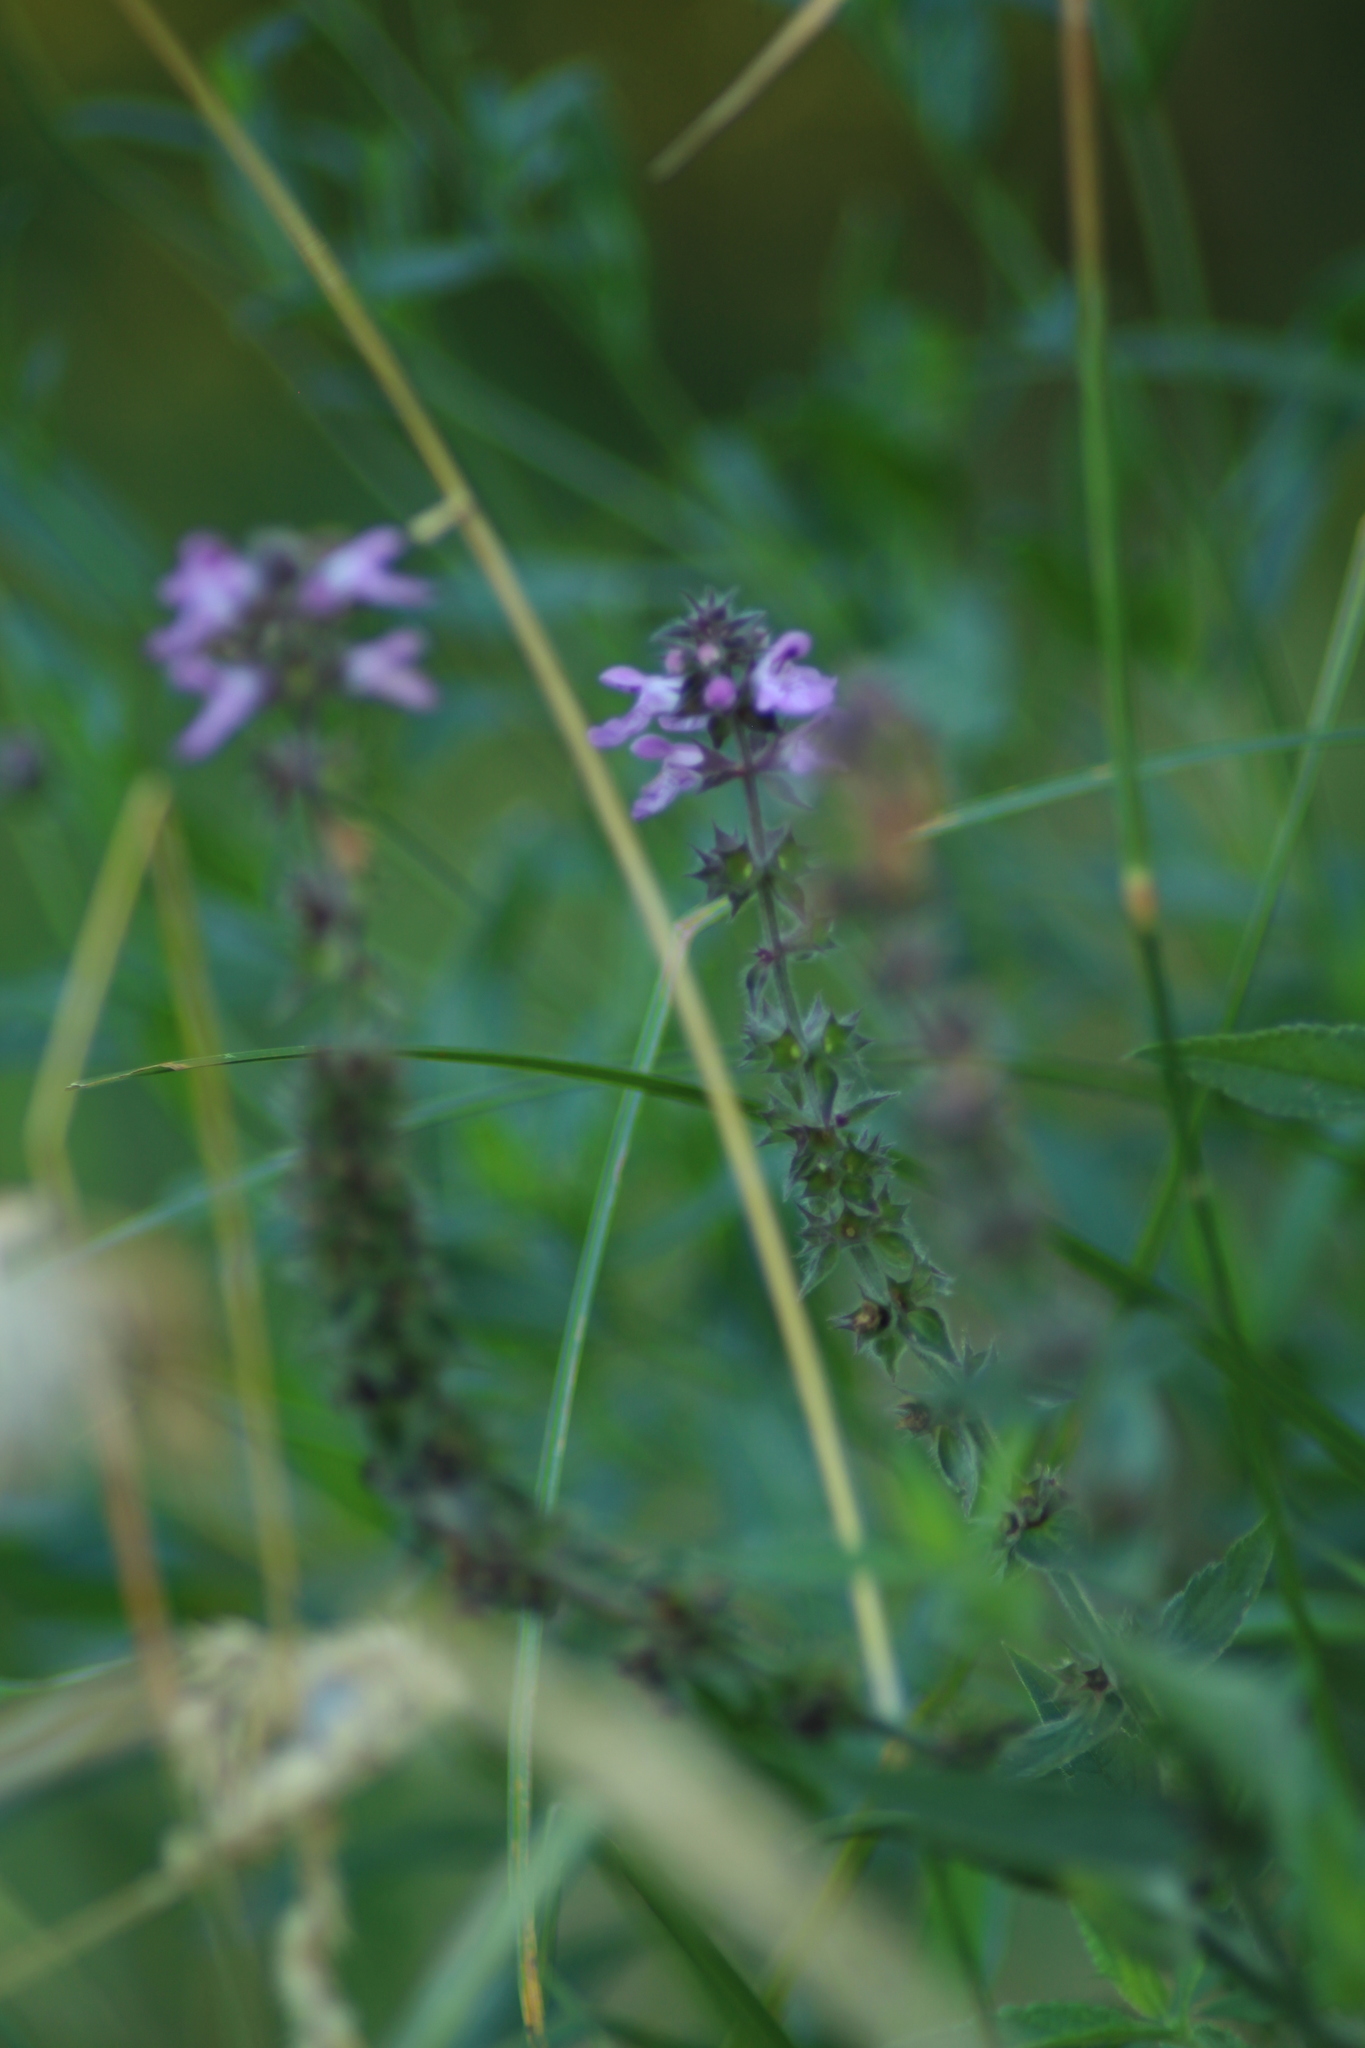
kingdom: Plantae
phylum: Tracheophyta
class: Magnoliopsida
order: Lamiales
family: Lamiaceae
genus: Stachys
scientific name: Stachys palustris
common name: Marsh woundwort
